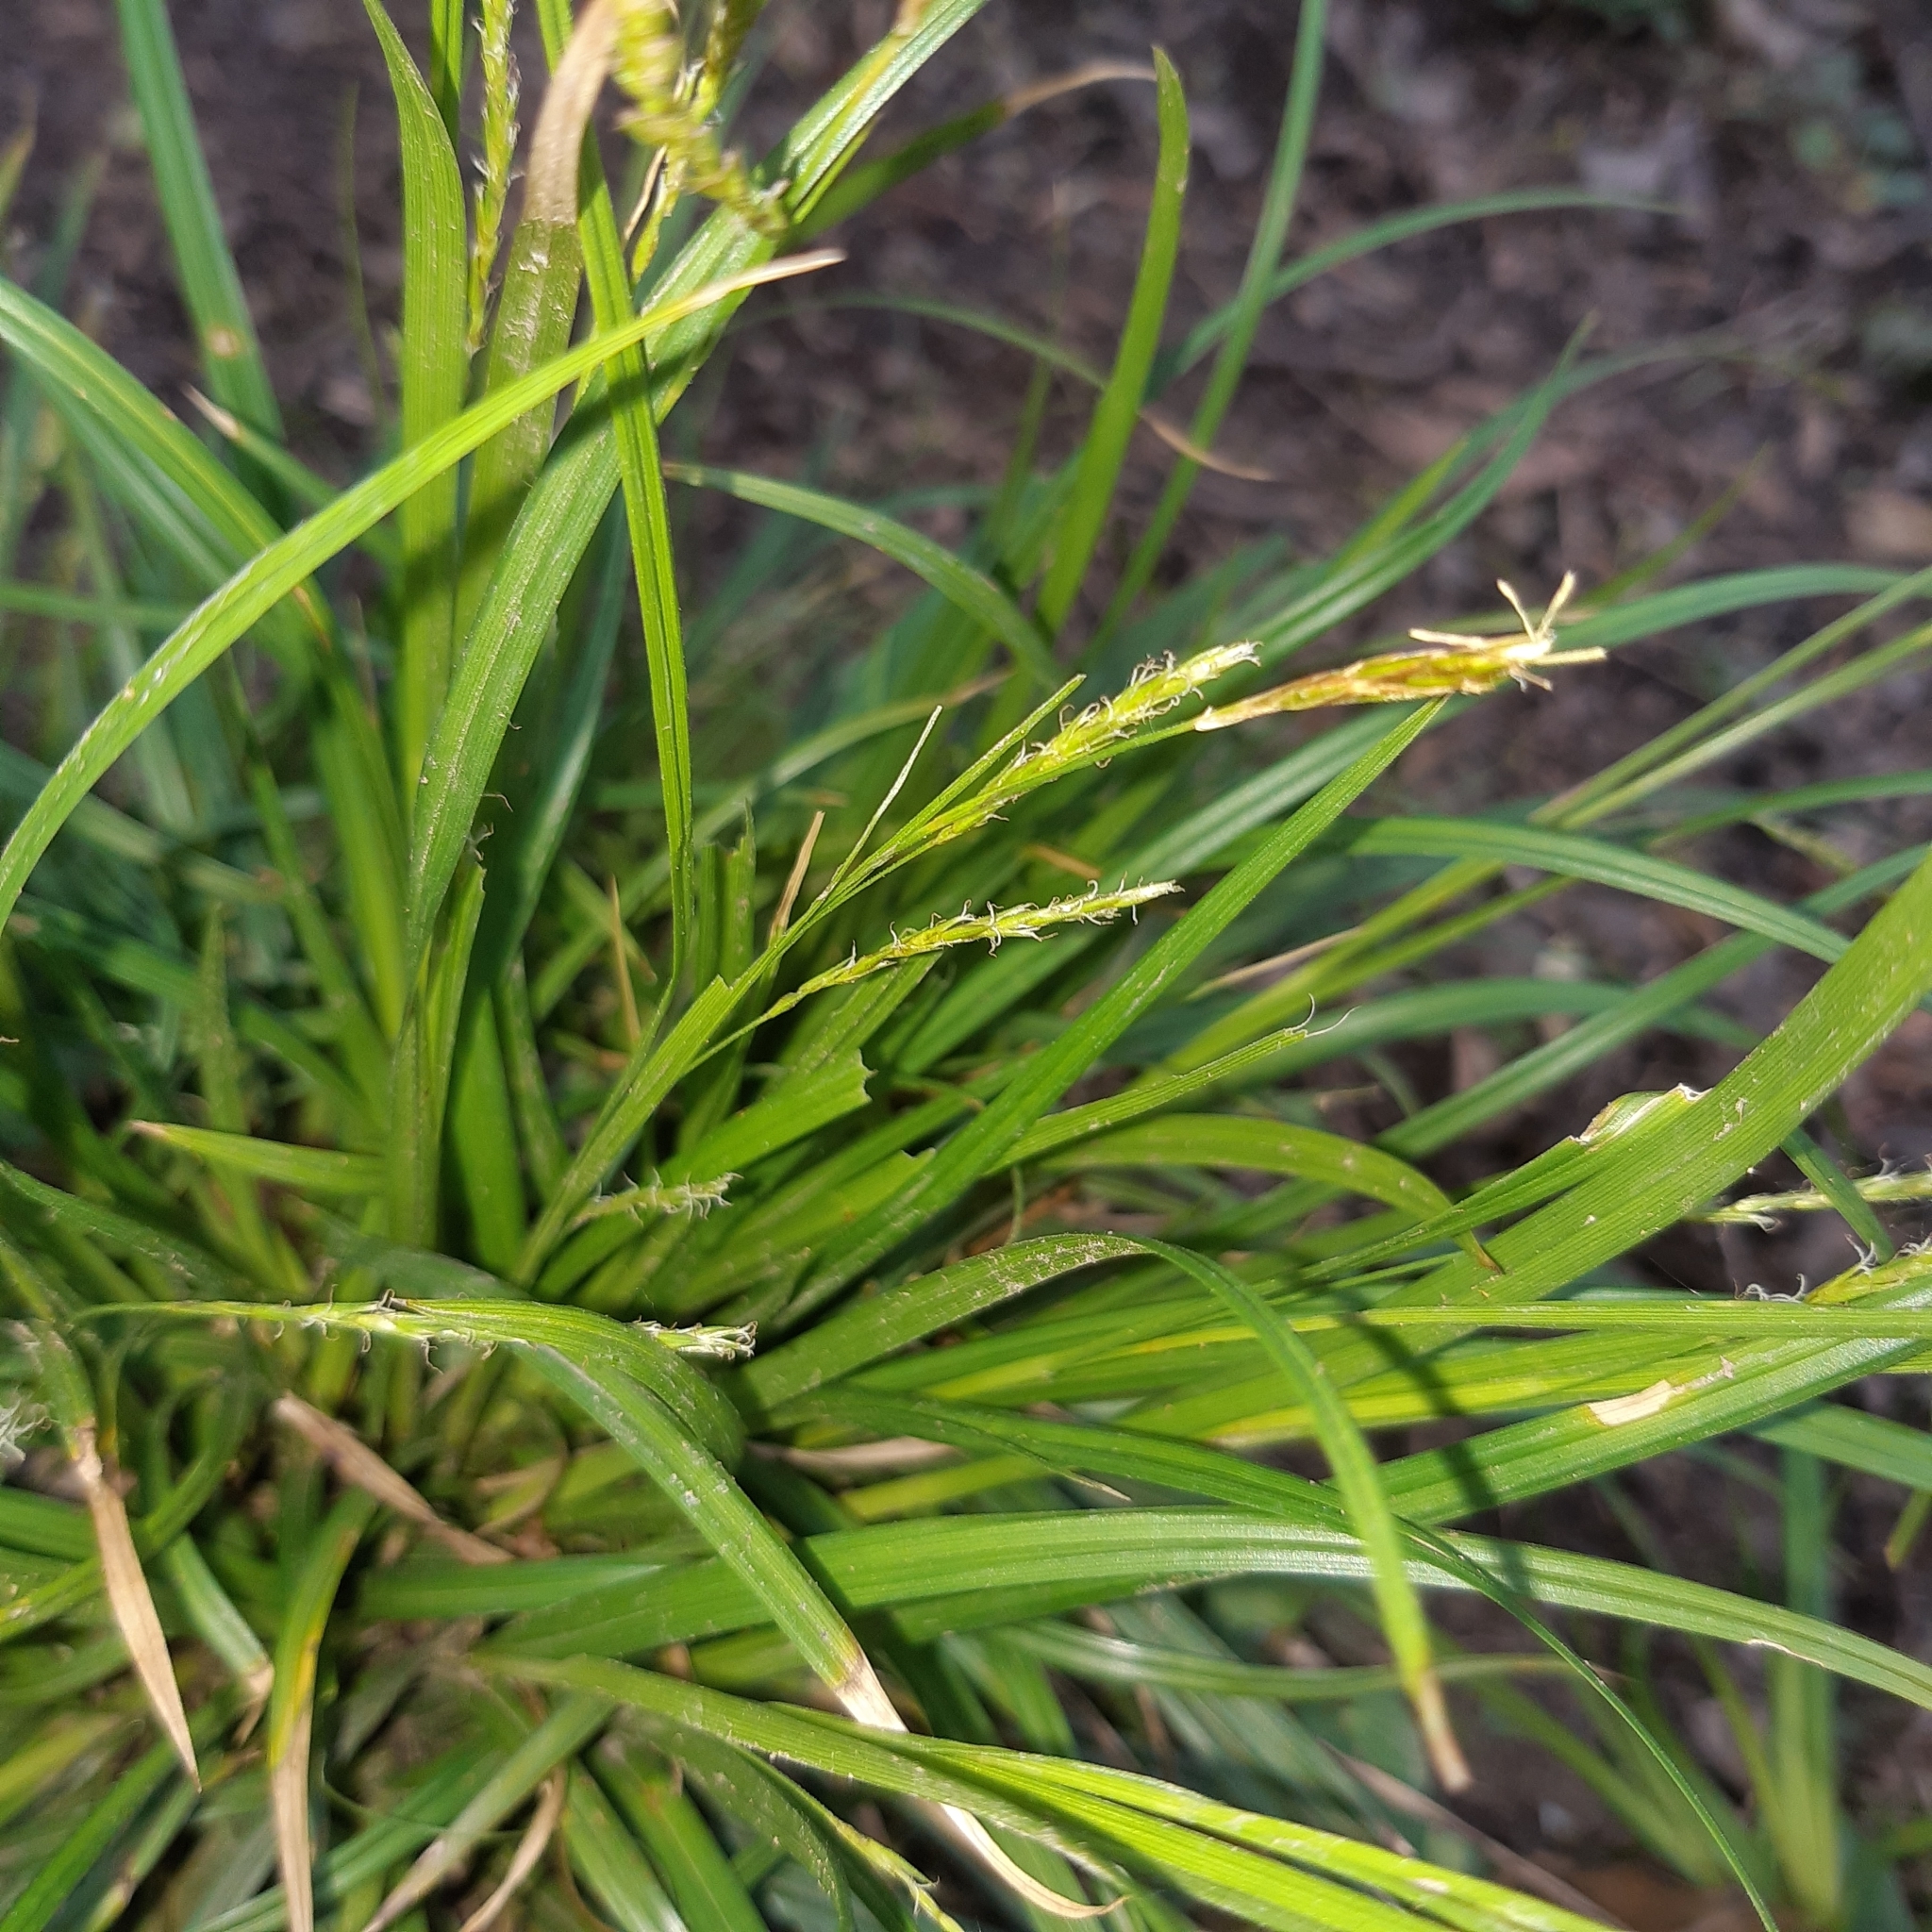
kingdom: Plantae
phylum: Tracheophyta
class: Liliopsida
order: Poales
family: Cyperaceae
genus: Carex
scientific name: Carex sylvatica
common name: Wood-sedge
